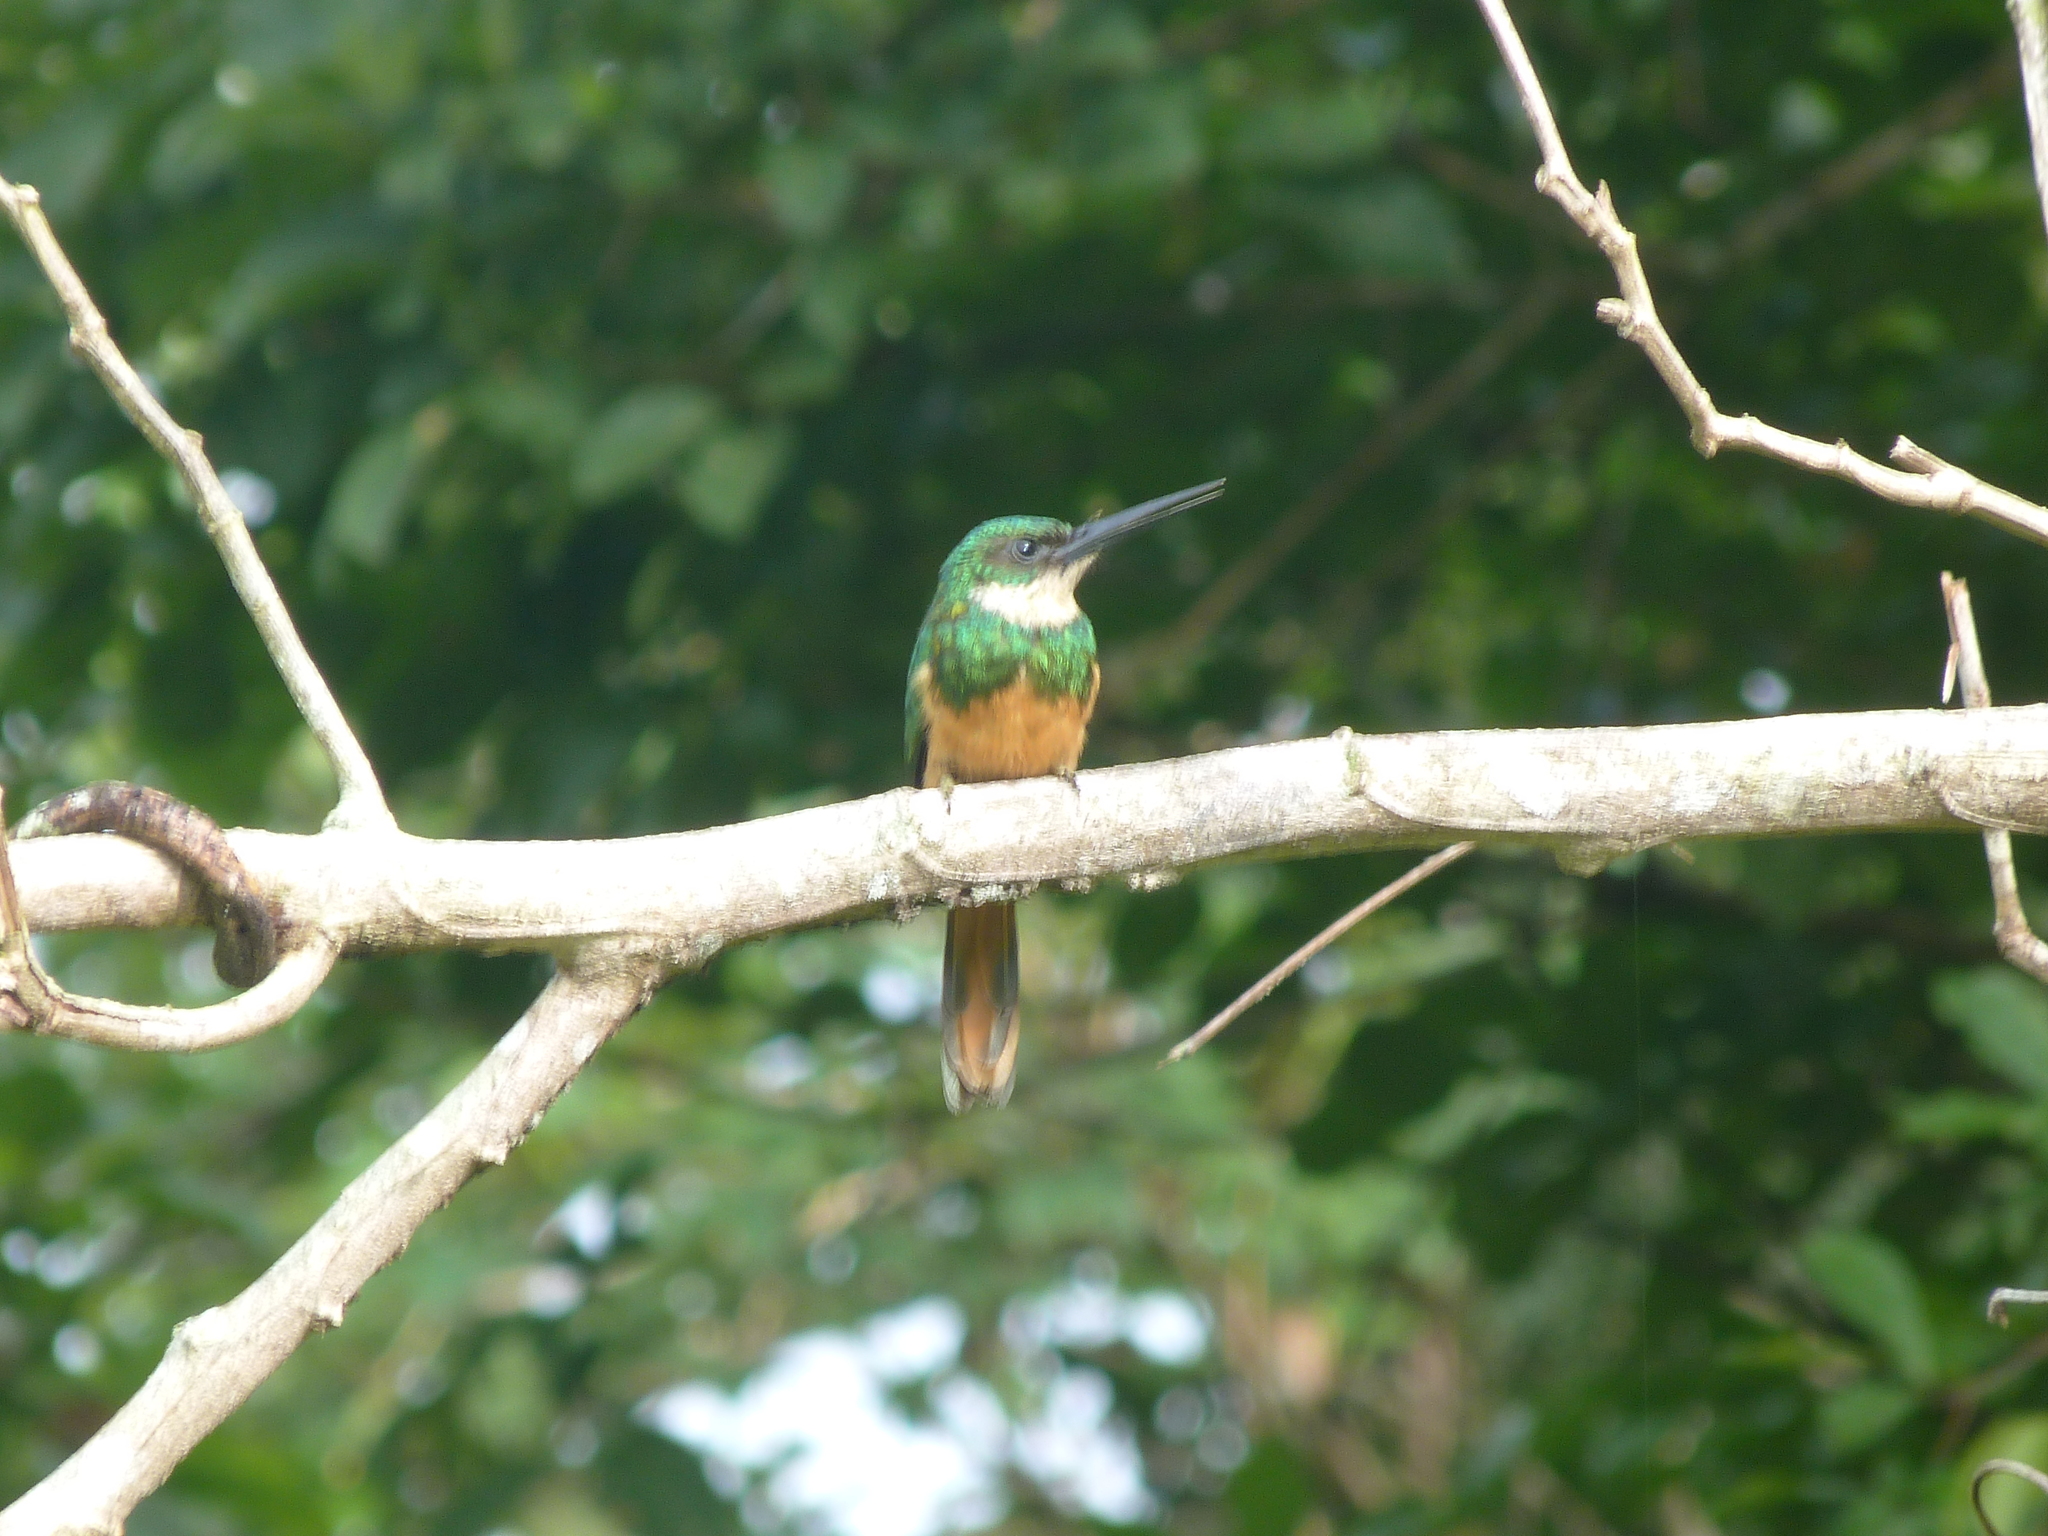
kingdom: Animalia
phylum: Chordata
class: Aves
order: Piciformes
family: Galbulidae
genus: Galbula
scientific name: Galbula ruficauda
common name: Rufous-tailed jacamar
